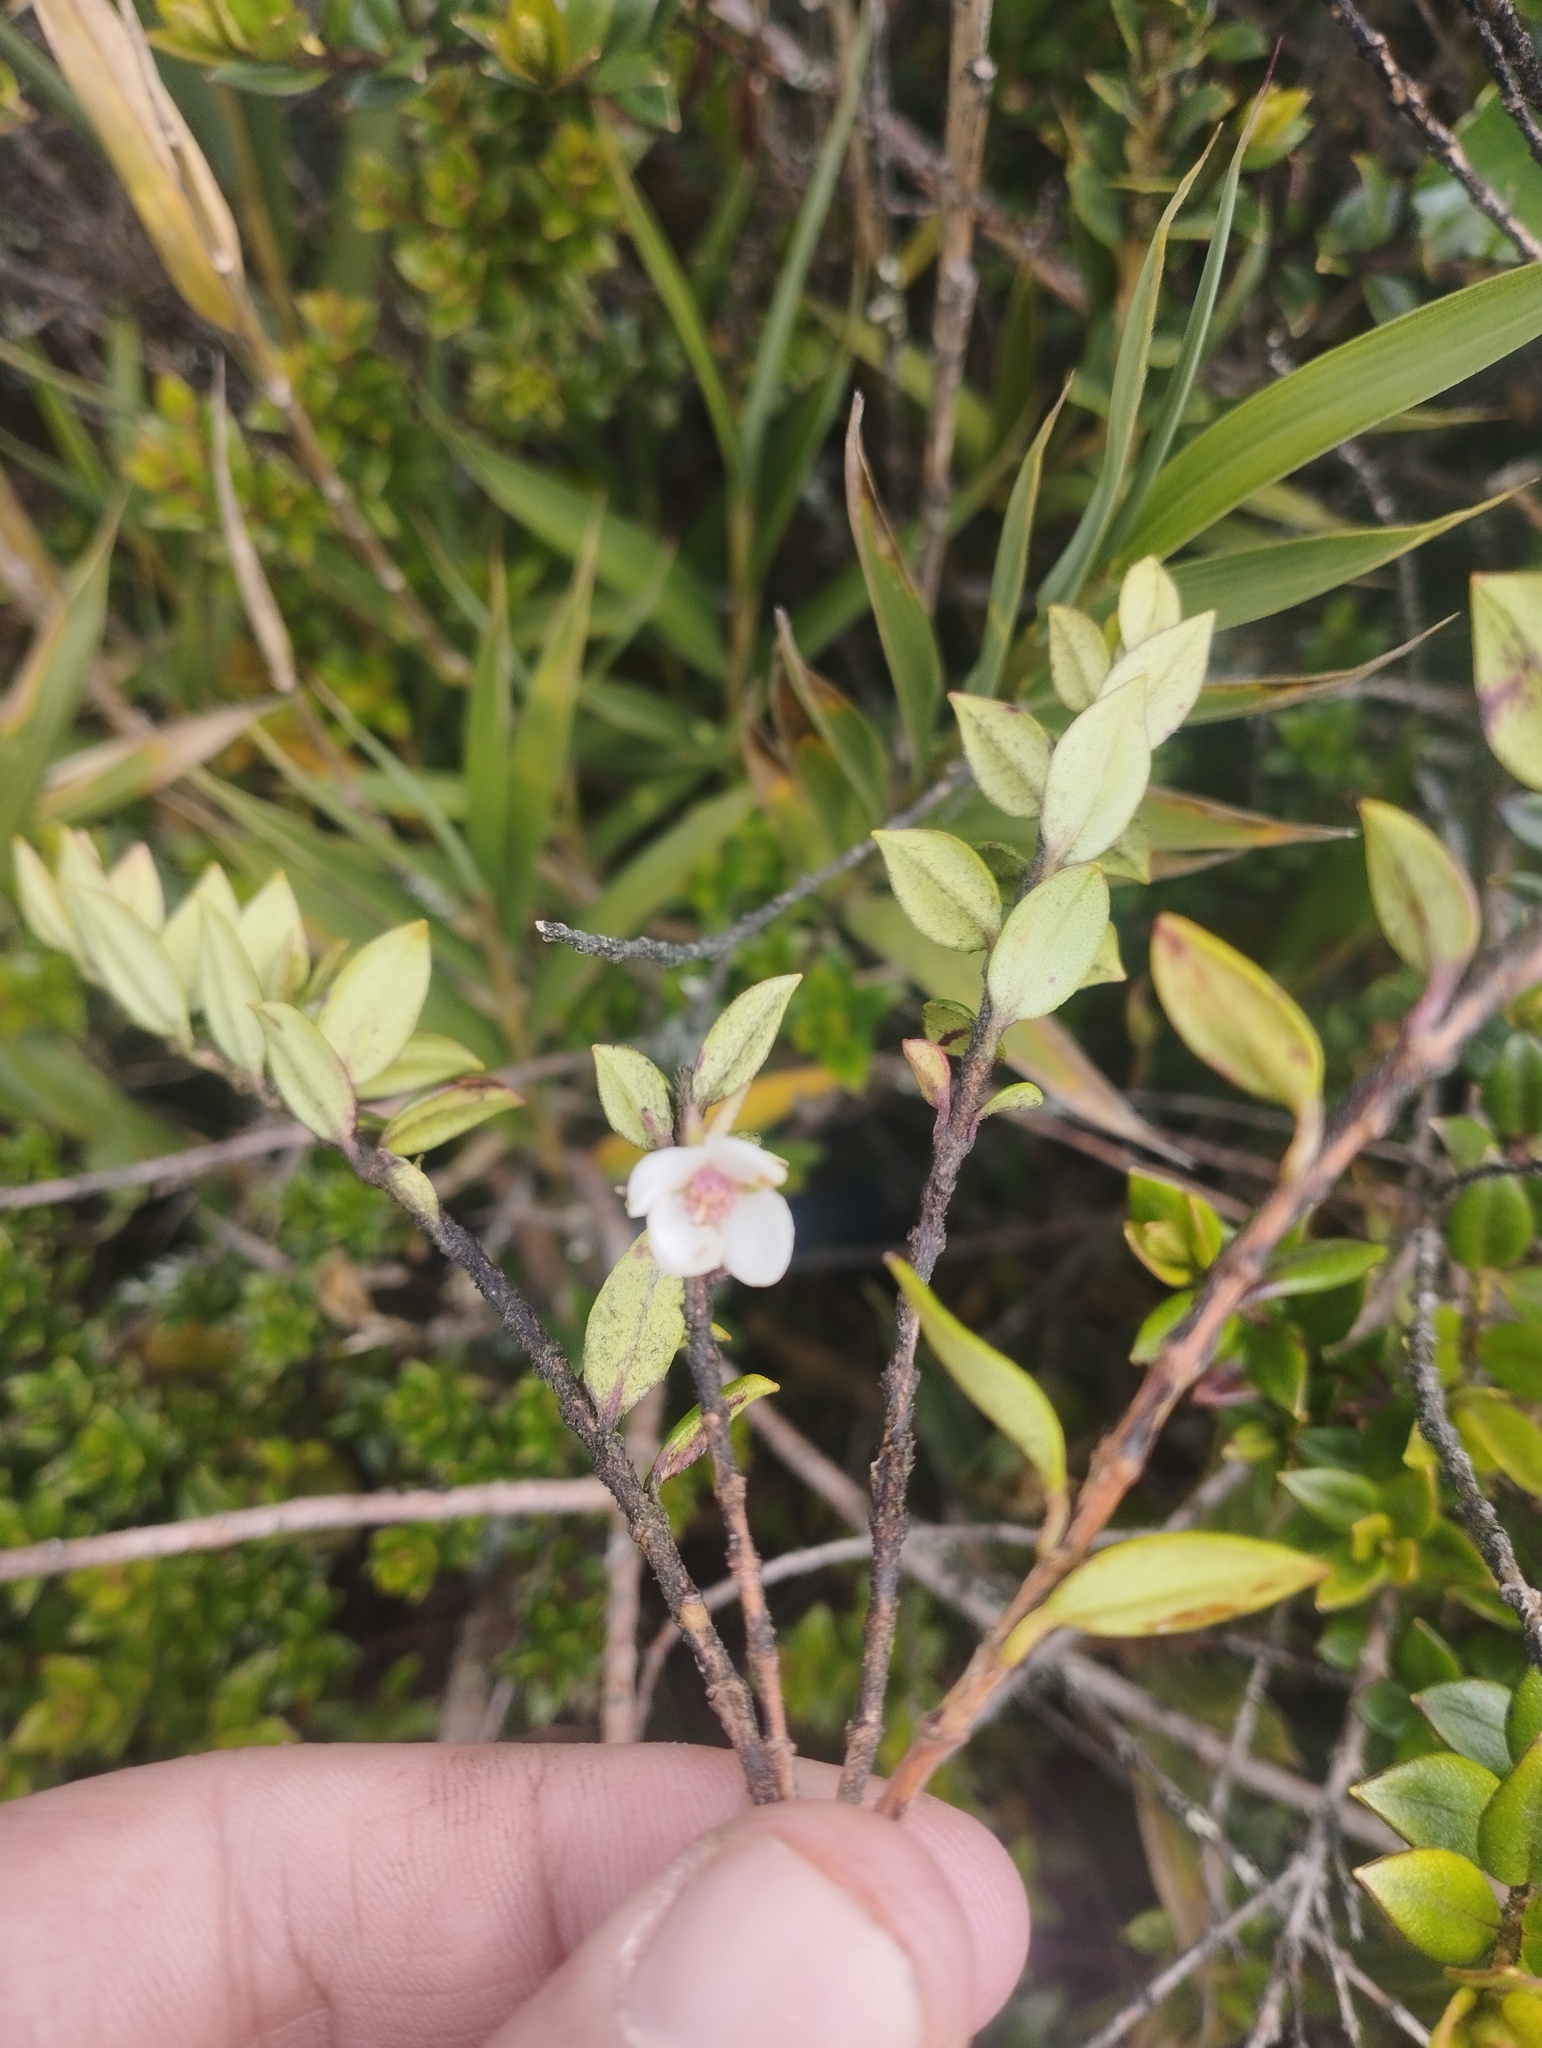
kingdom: Plantae
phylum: Tracheophyta
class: Magnoliopsida
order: Myrtales
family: Myrtaceae
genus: Ugni
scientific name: Ugni myricoides
